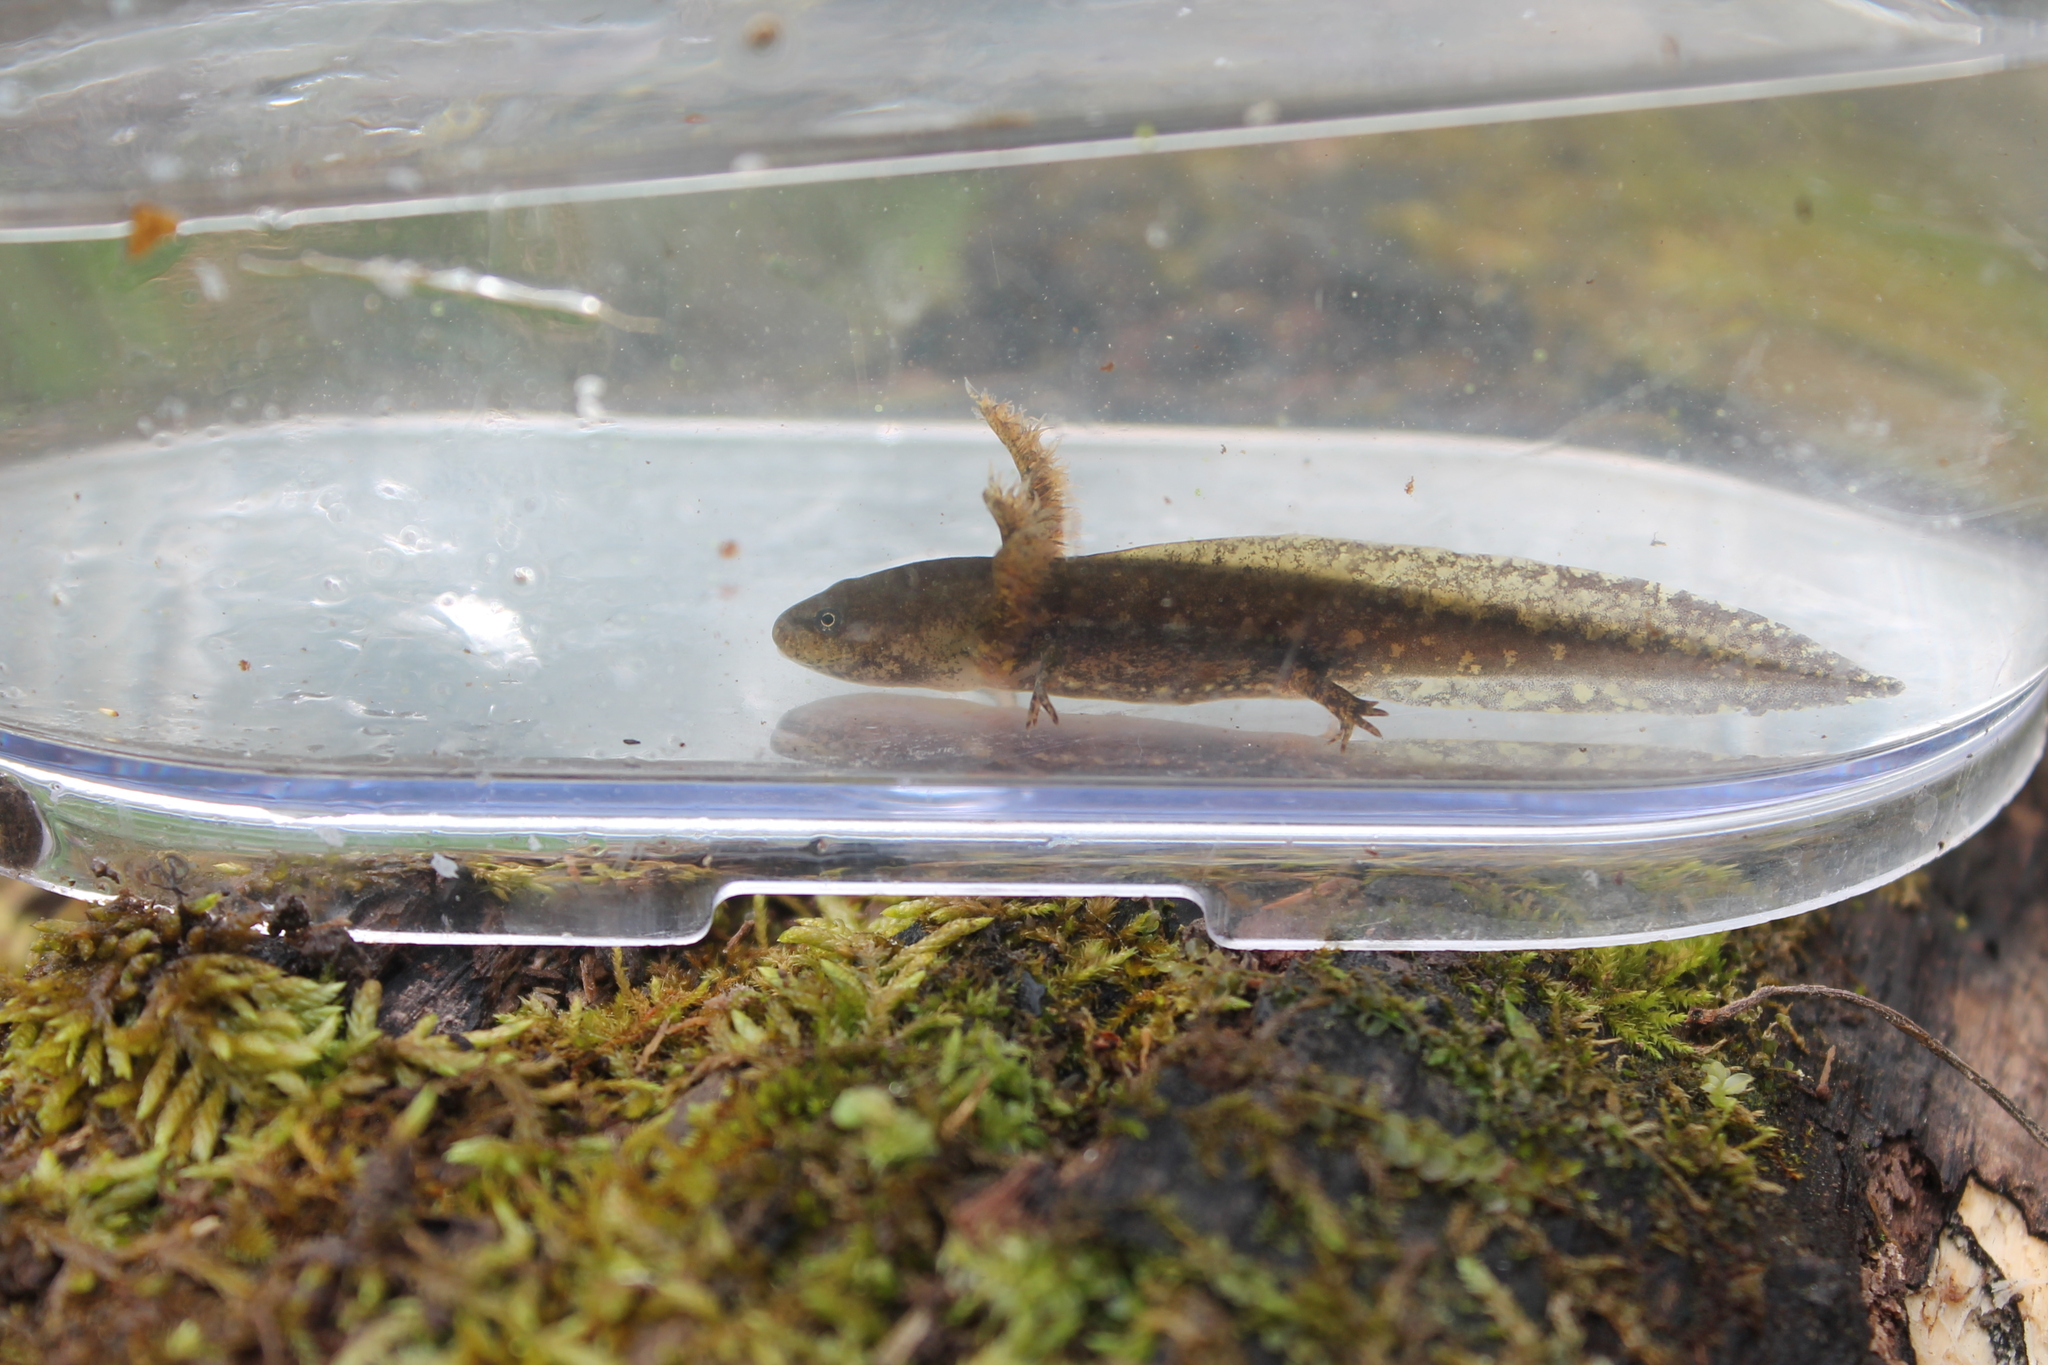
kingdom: Animalia
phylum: Chordata
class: Amphibia
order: Caudata
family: Ambystomatidae
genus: Ambystoma
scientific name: Ambystoma talpoideum
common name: Mole salamander
